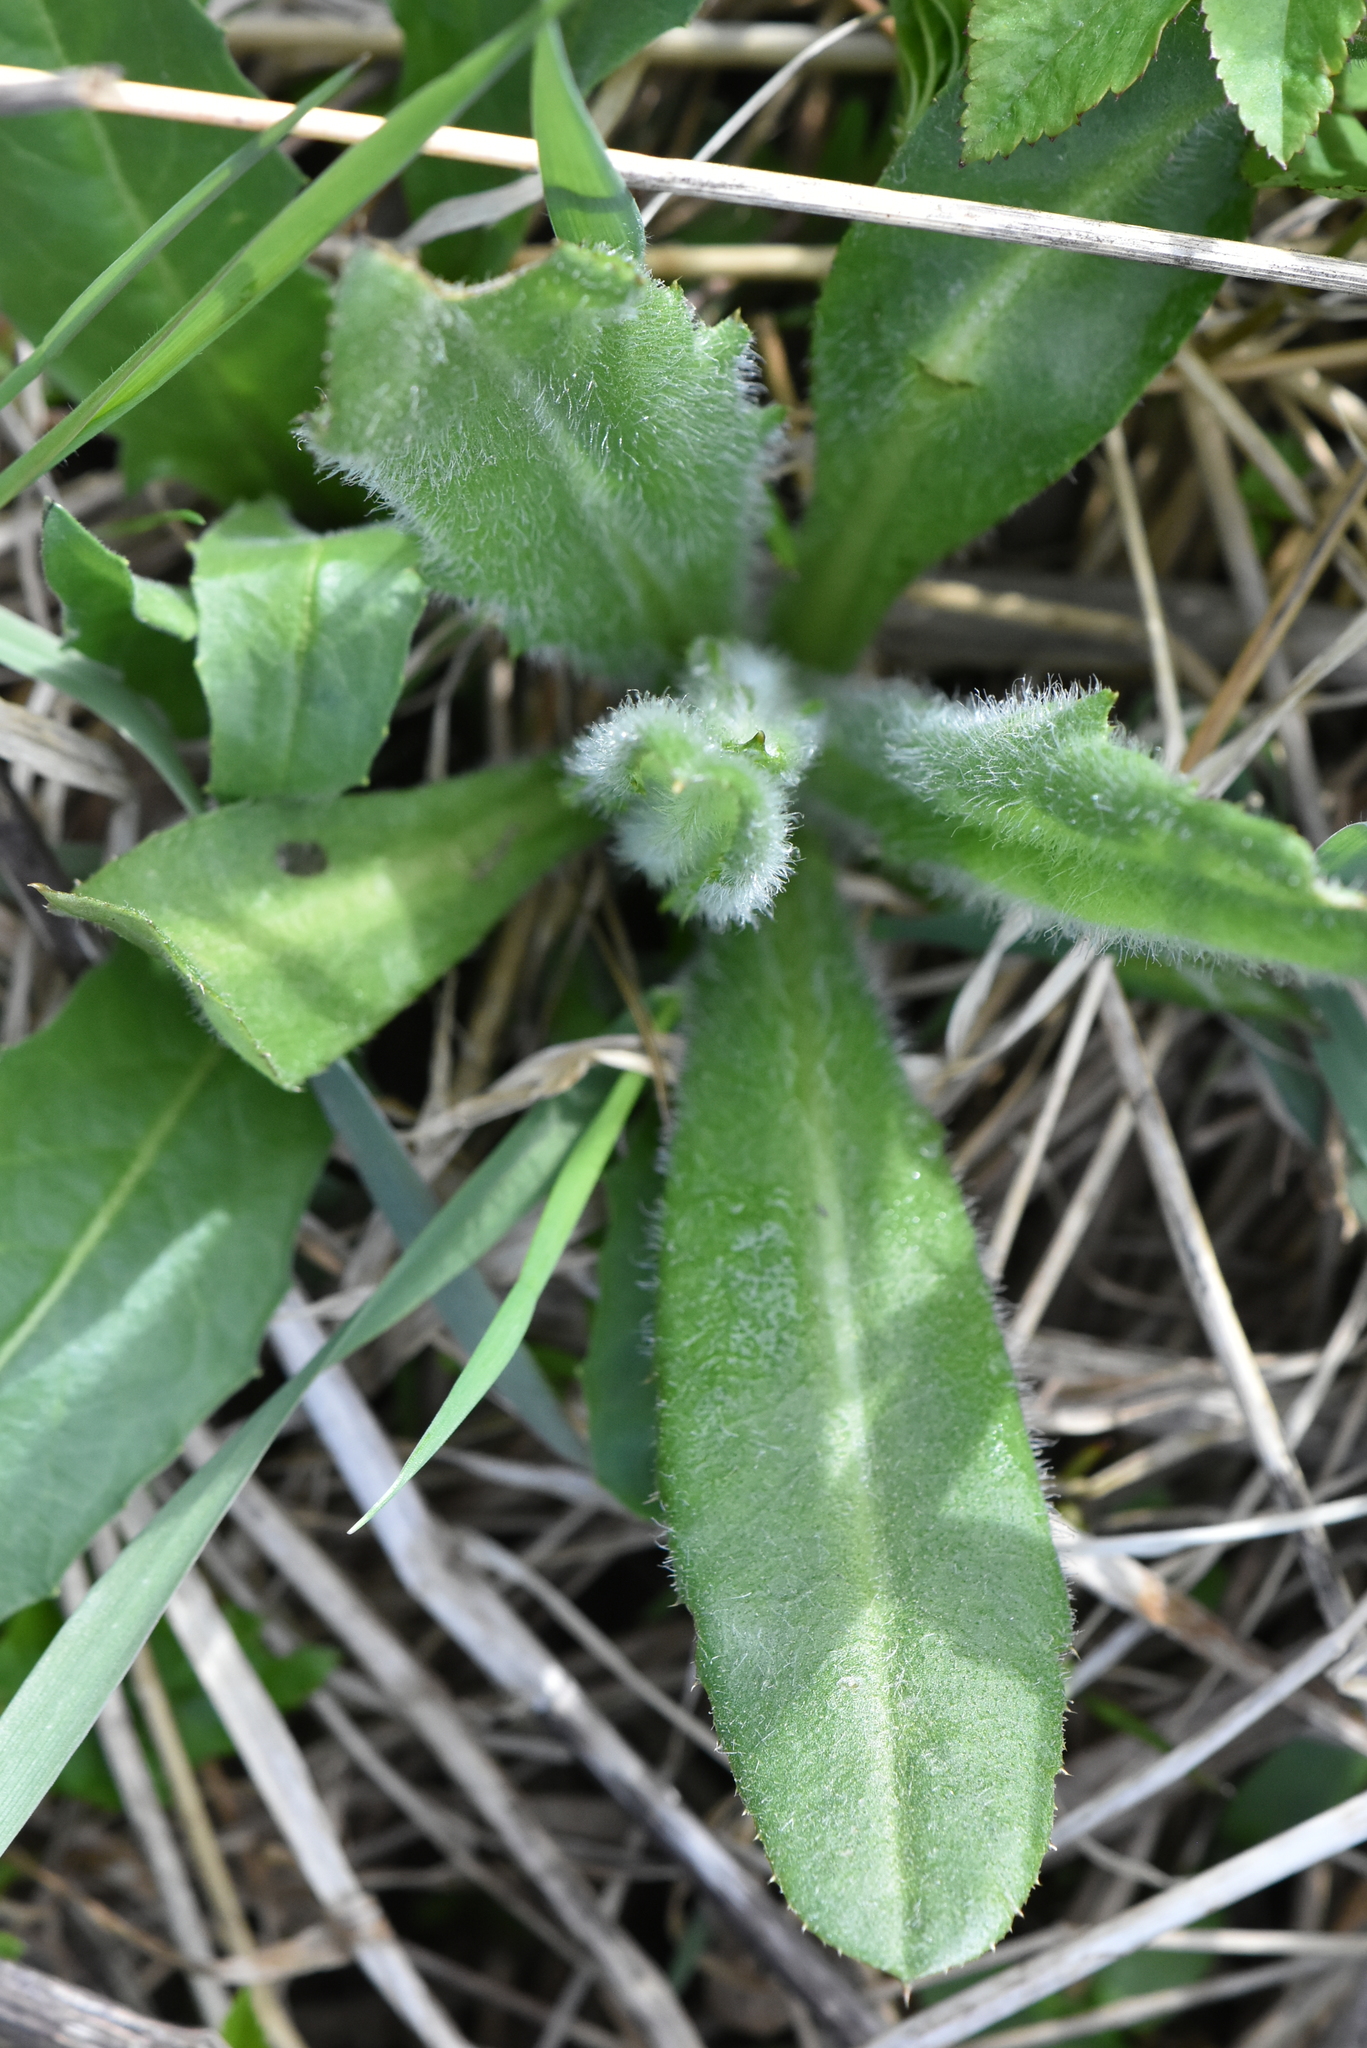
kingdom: Plantae
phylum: Tracheophyta
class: Magnoliopsida
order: Asterales
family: Asteraceae
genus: Cirsium
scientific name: Cirsium arvense
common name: Creeping thistle
